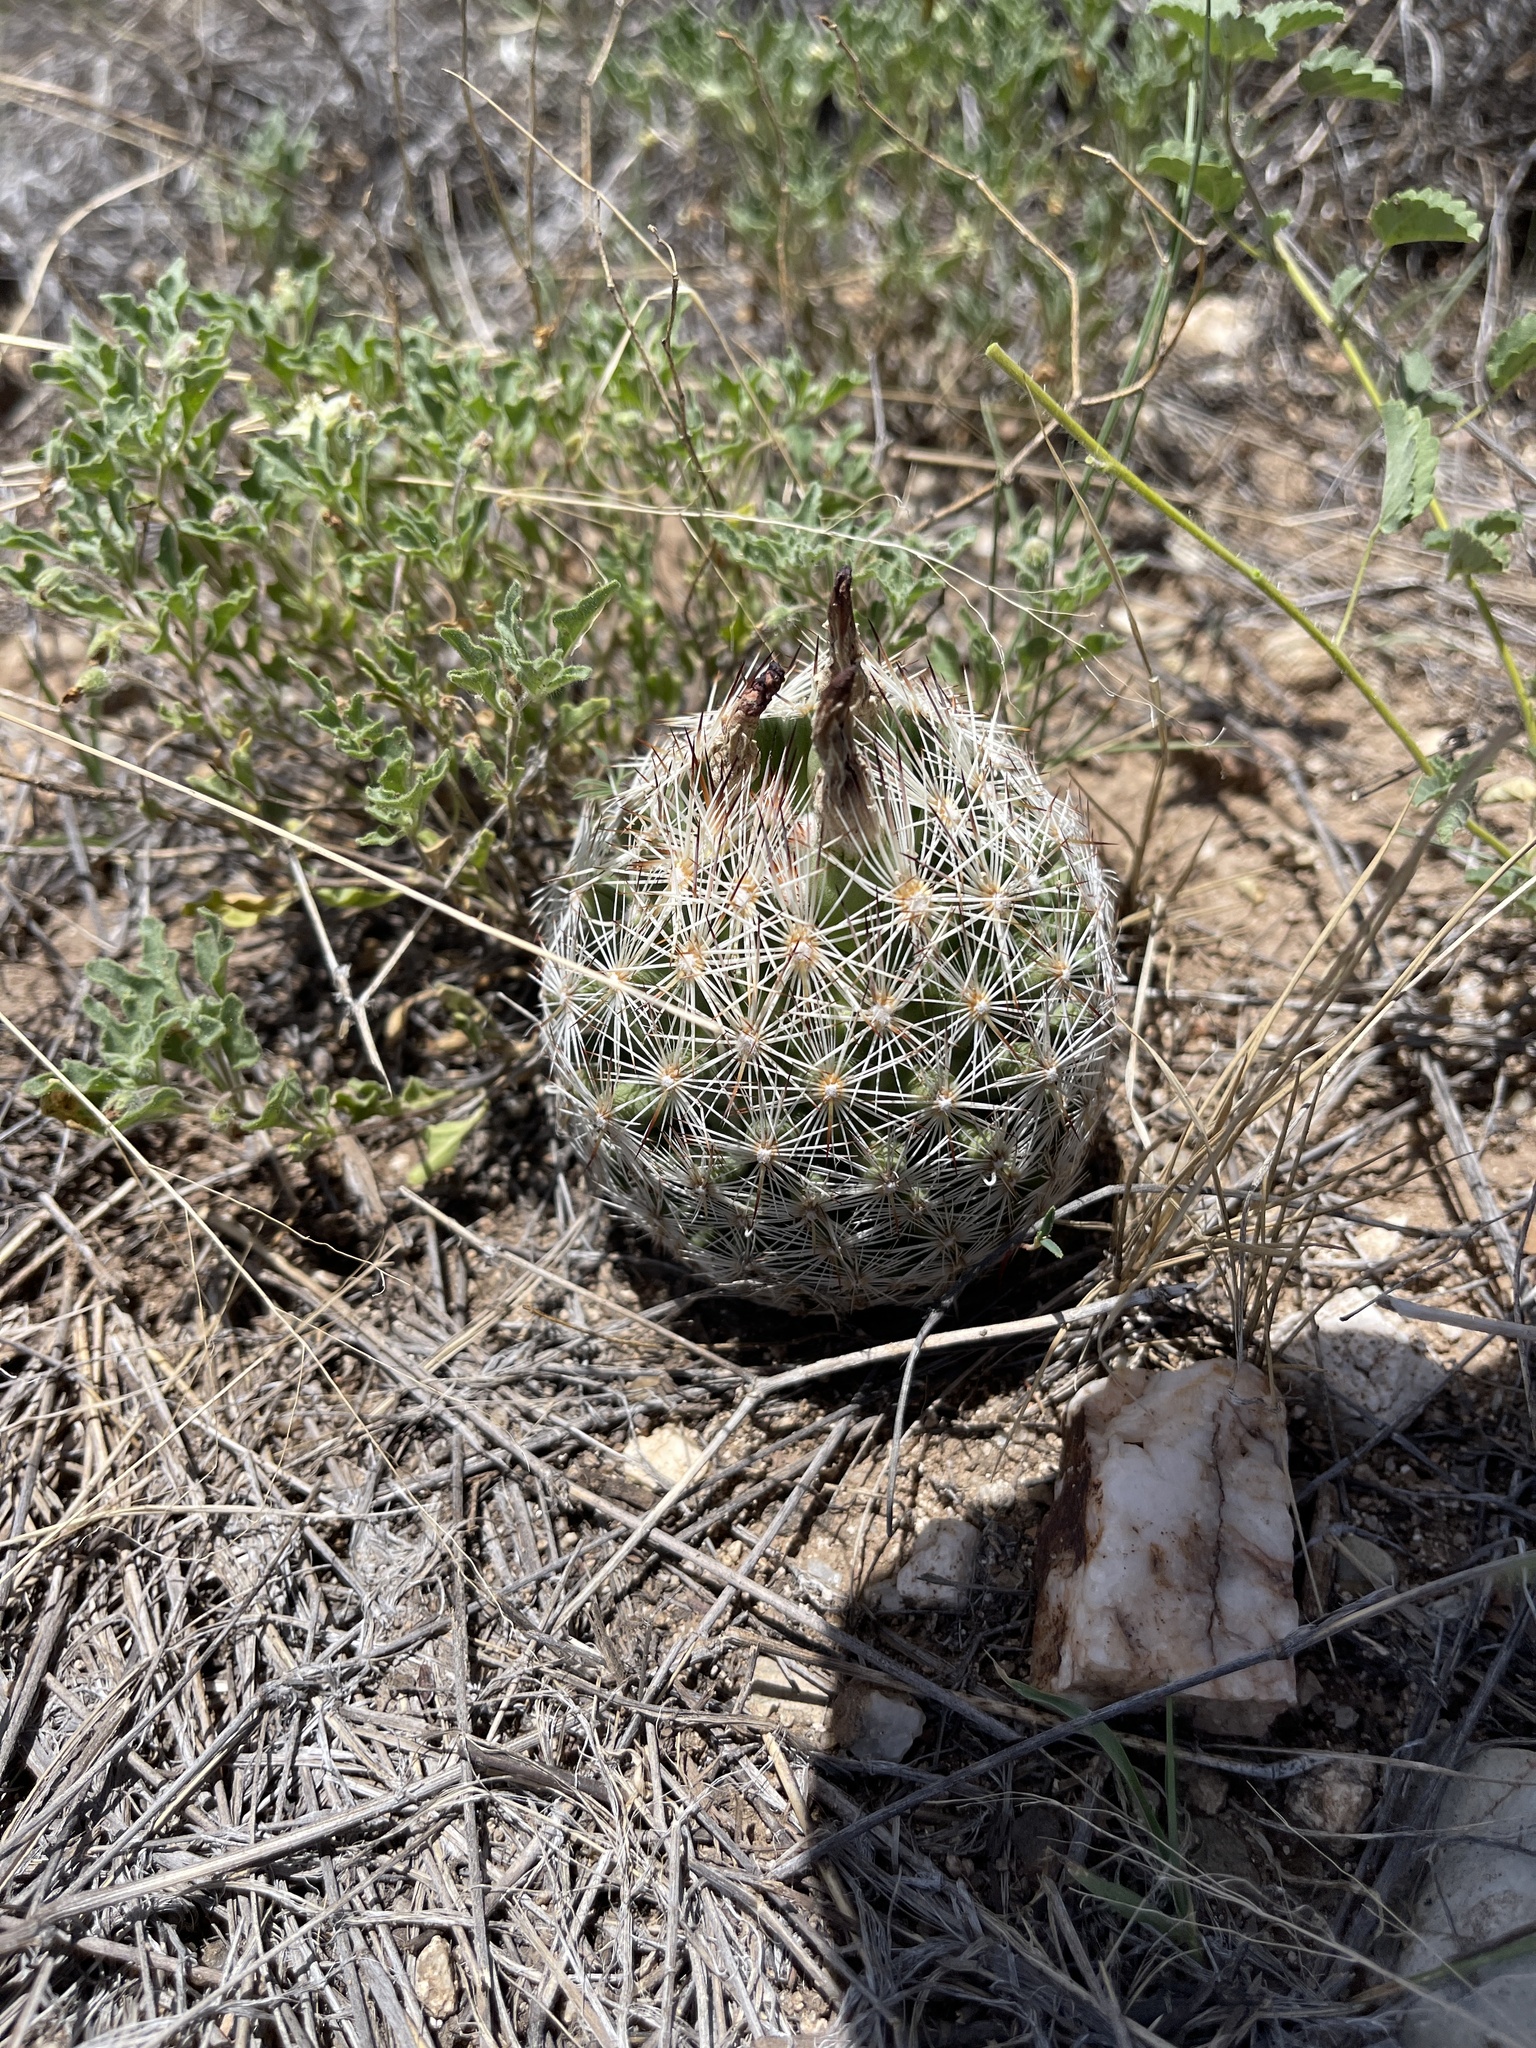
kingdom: Plantae
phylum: Tracheophyta
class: Magnoliopsida
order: Caryophyllales
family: Cactaceae
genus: Pelecyphora
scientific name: Pelecyphora vivipara
